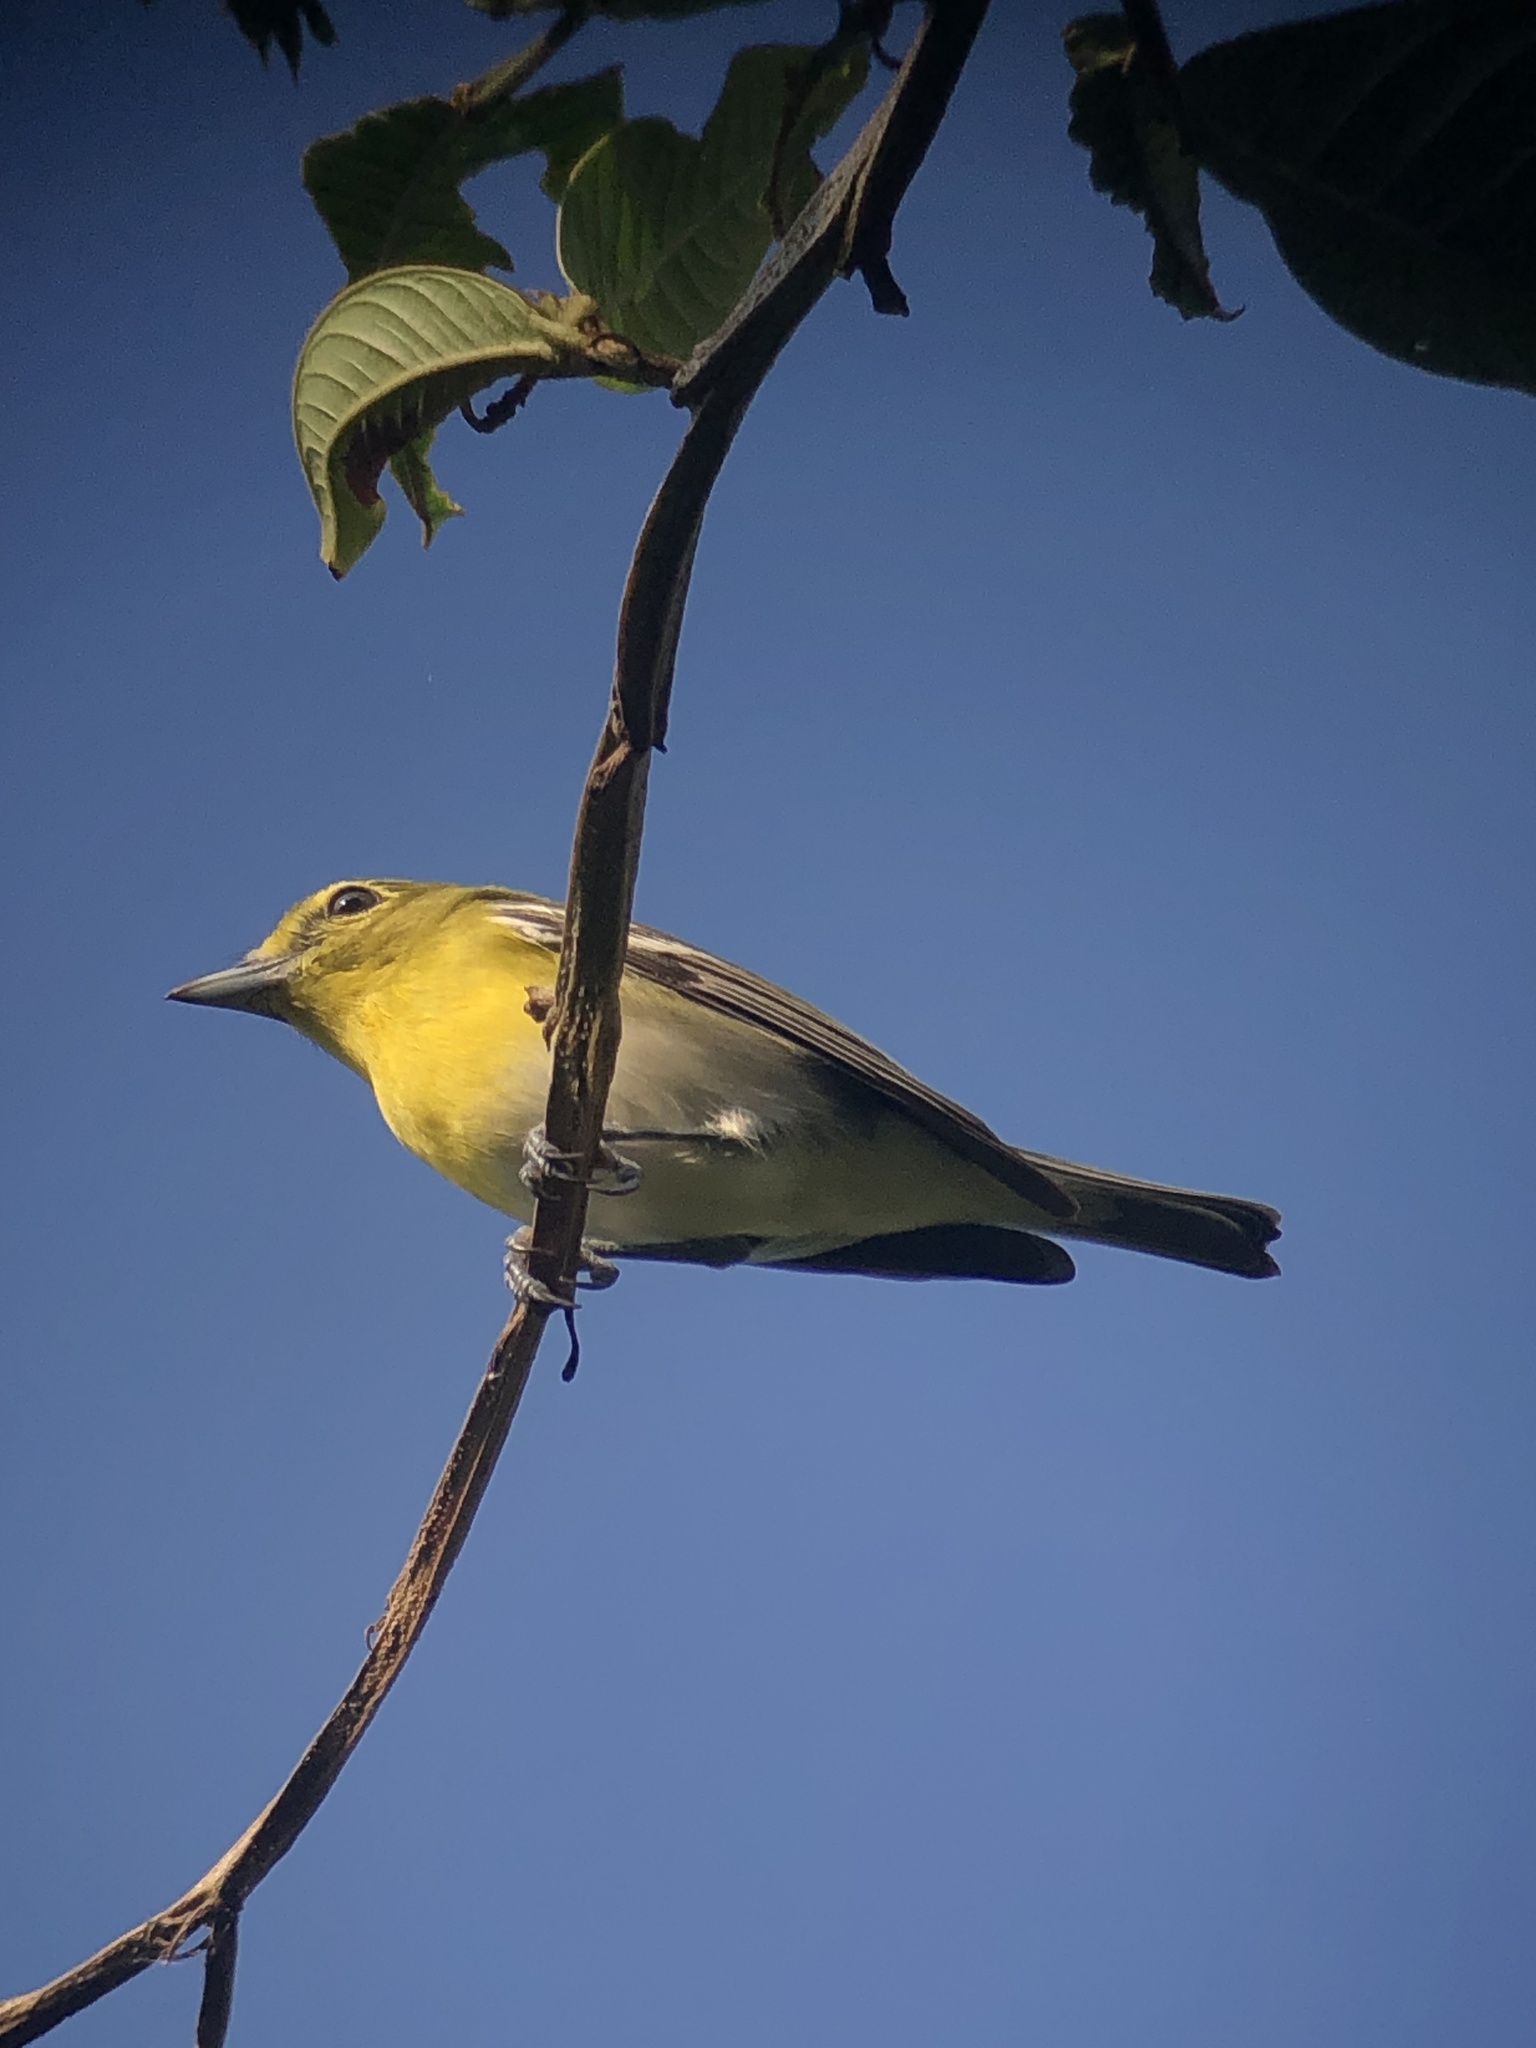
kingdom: Animalia
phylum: Chordata
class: Aves
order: Passeriformes
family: Vireonidae
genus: Vireo
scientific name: Vireo flavifrons
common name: Yellow-throated vireo
